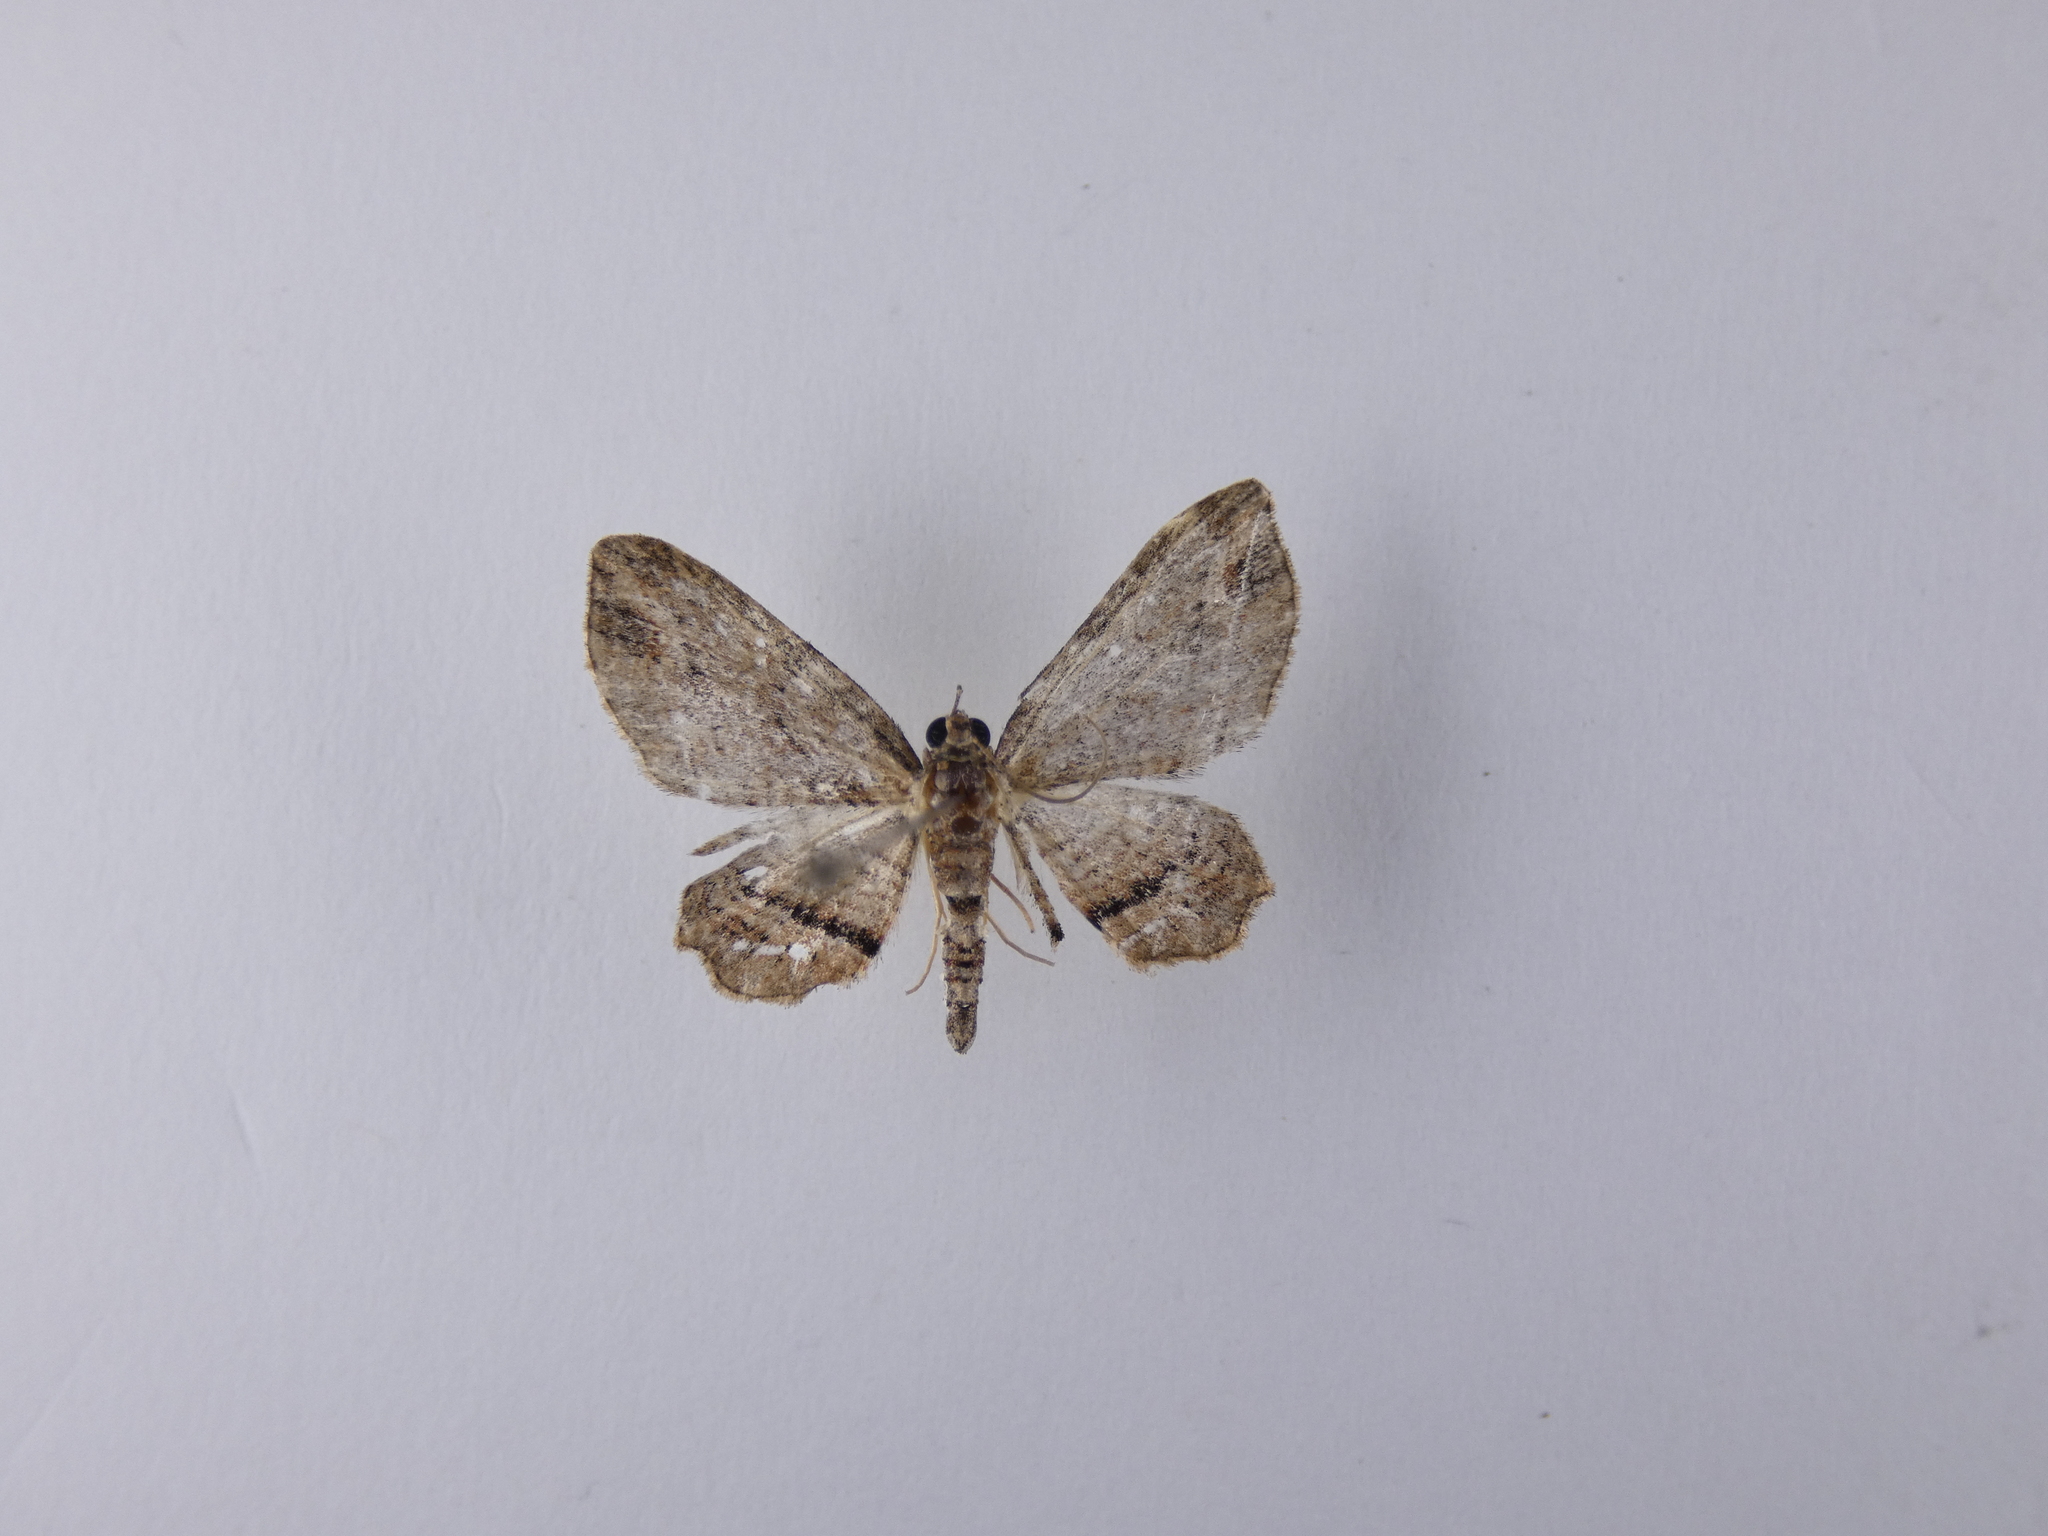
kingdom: Animalia
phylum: Arthropoda
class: Insecta
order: Lepidoptera
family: Geometridae
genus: Chloroclystis
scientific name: Chloroclystis filata
